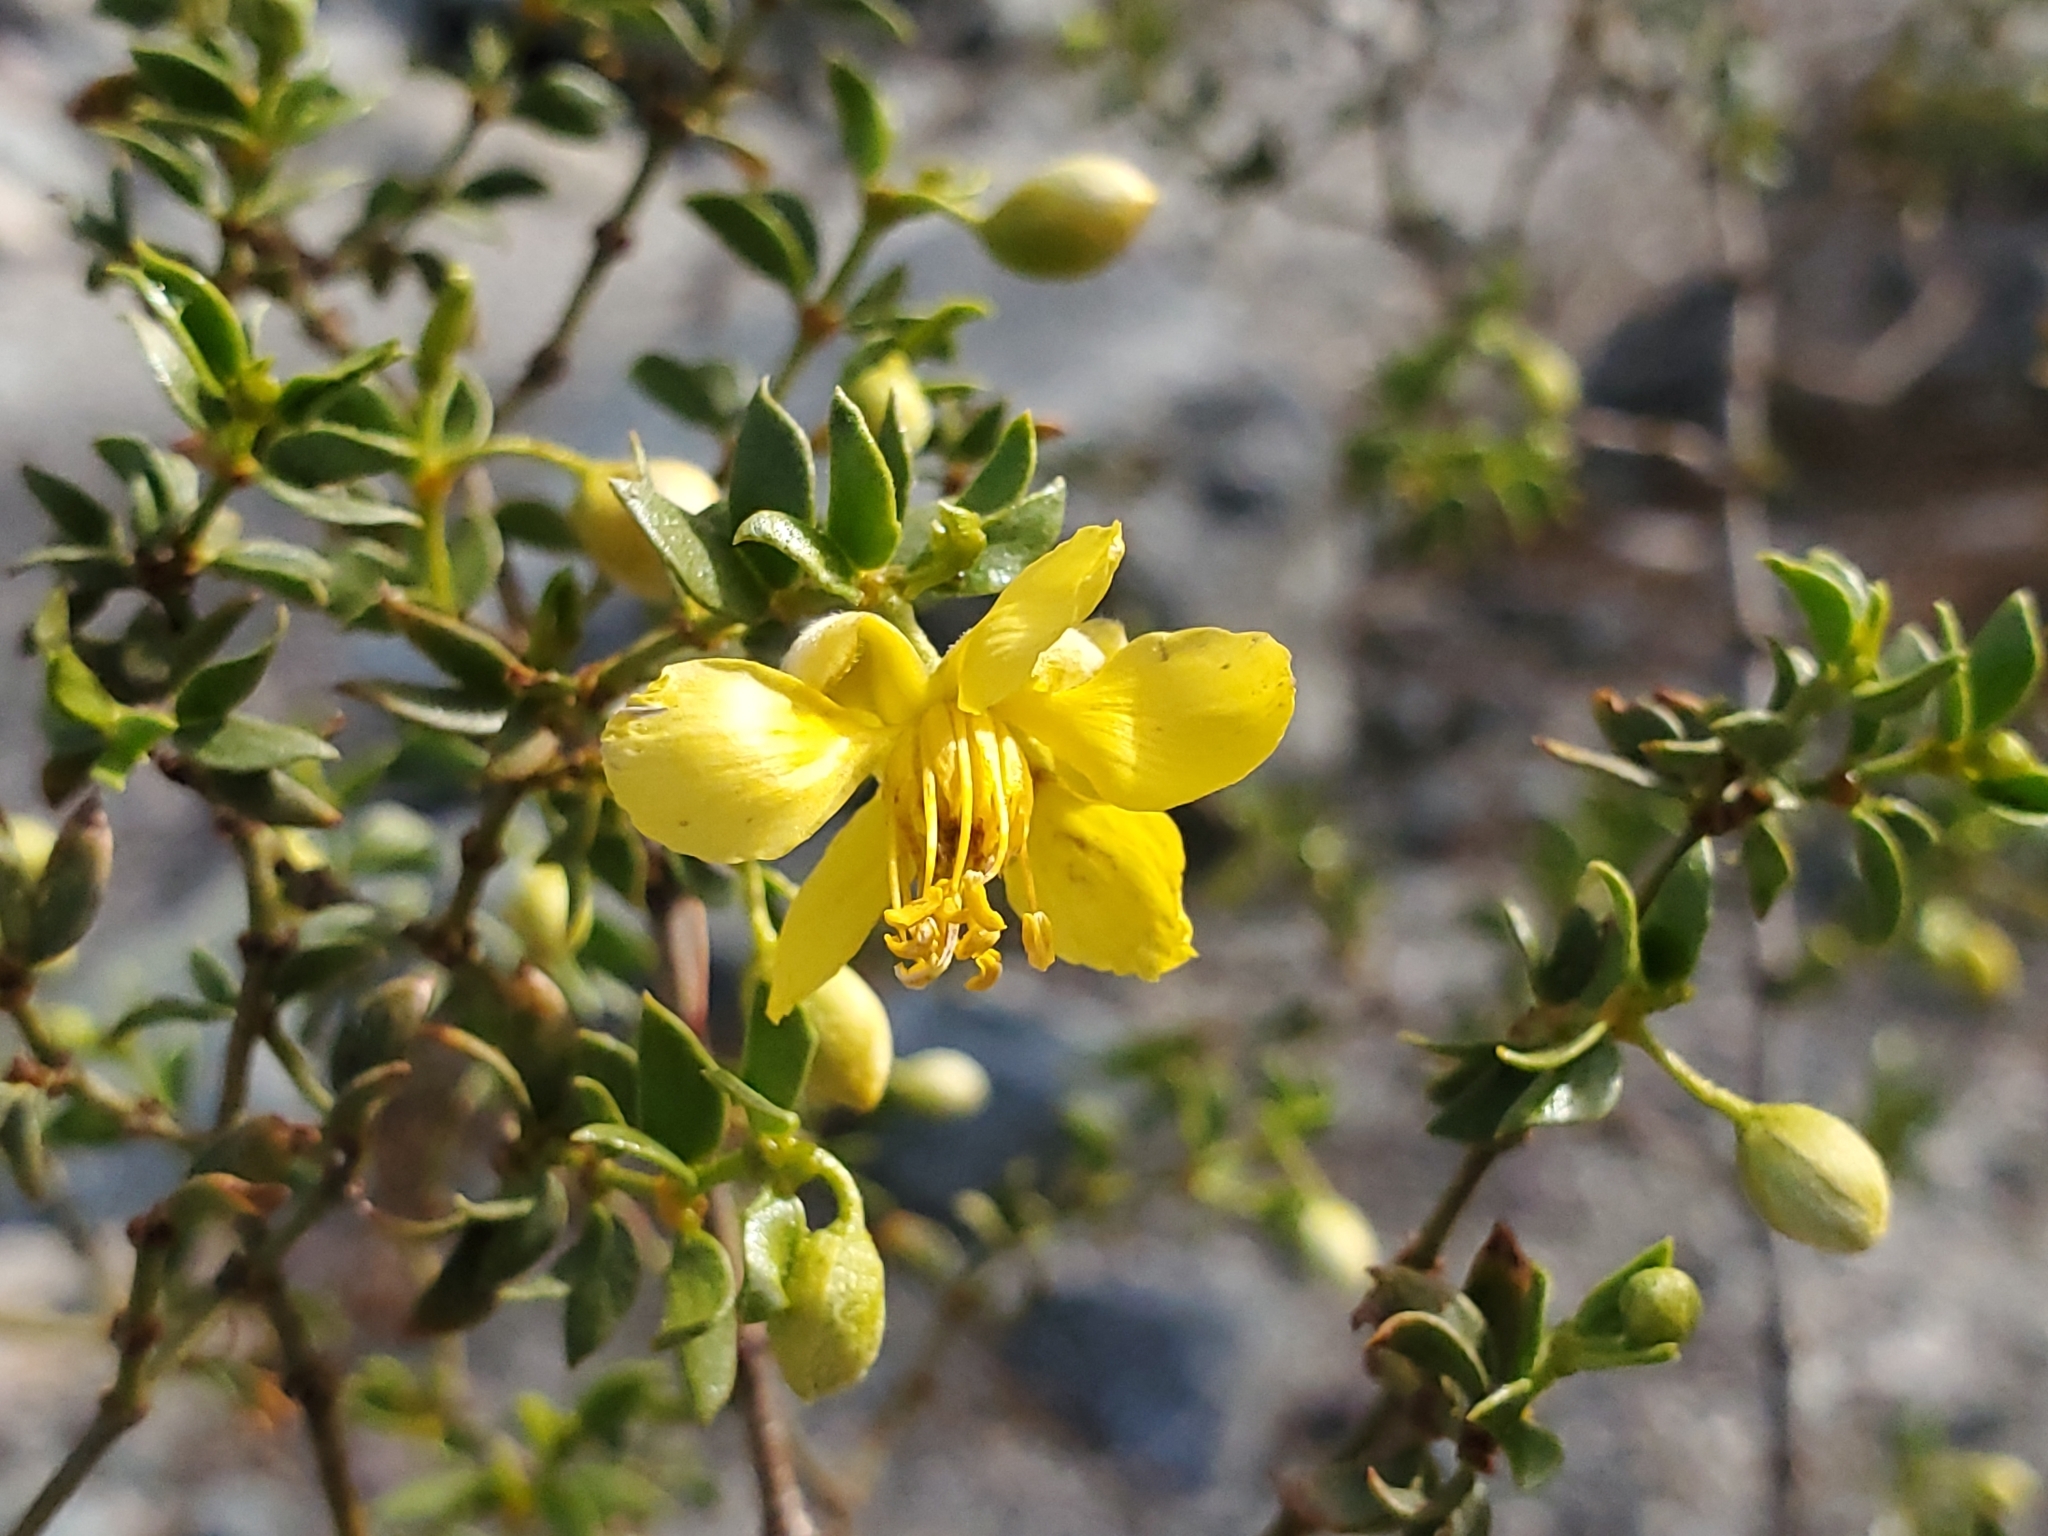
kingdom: Plantae
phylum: Tracheophyta
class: Magnoliopsida
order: Zygophyllales
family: Zygophyllaceae
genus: Larrea
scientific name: Larrea tridentata
